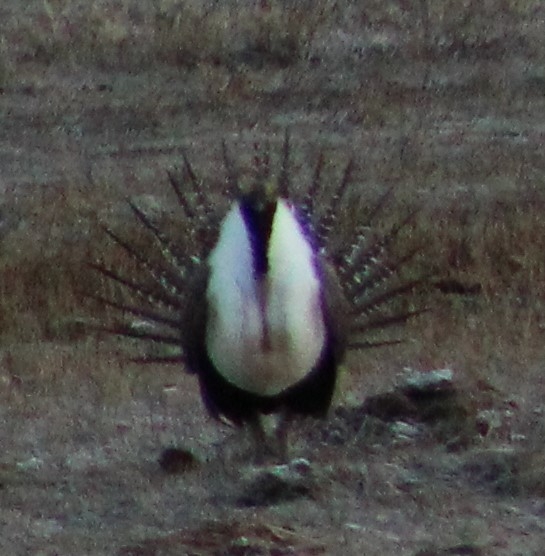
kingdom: Animalia
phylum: Chordata
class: Aves
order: Galliformes
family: Phasianidae
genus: Centrocercus
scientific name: Centrocercus urophasianus
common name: Sage grouse
